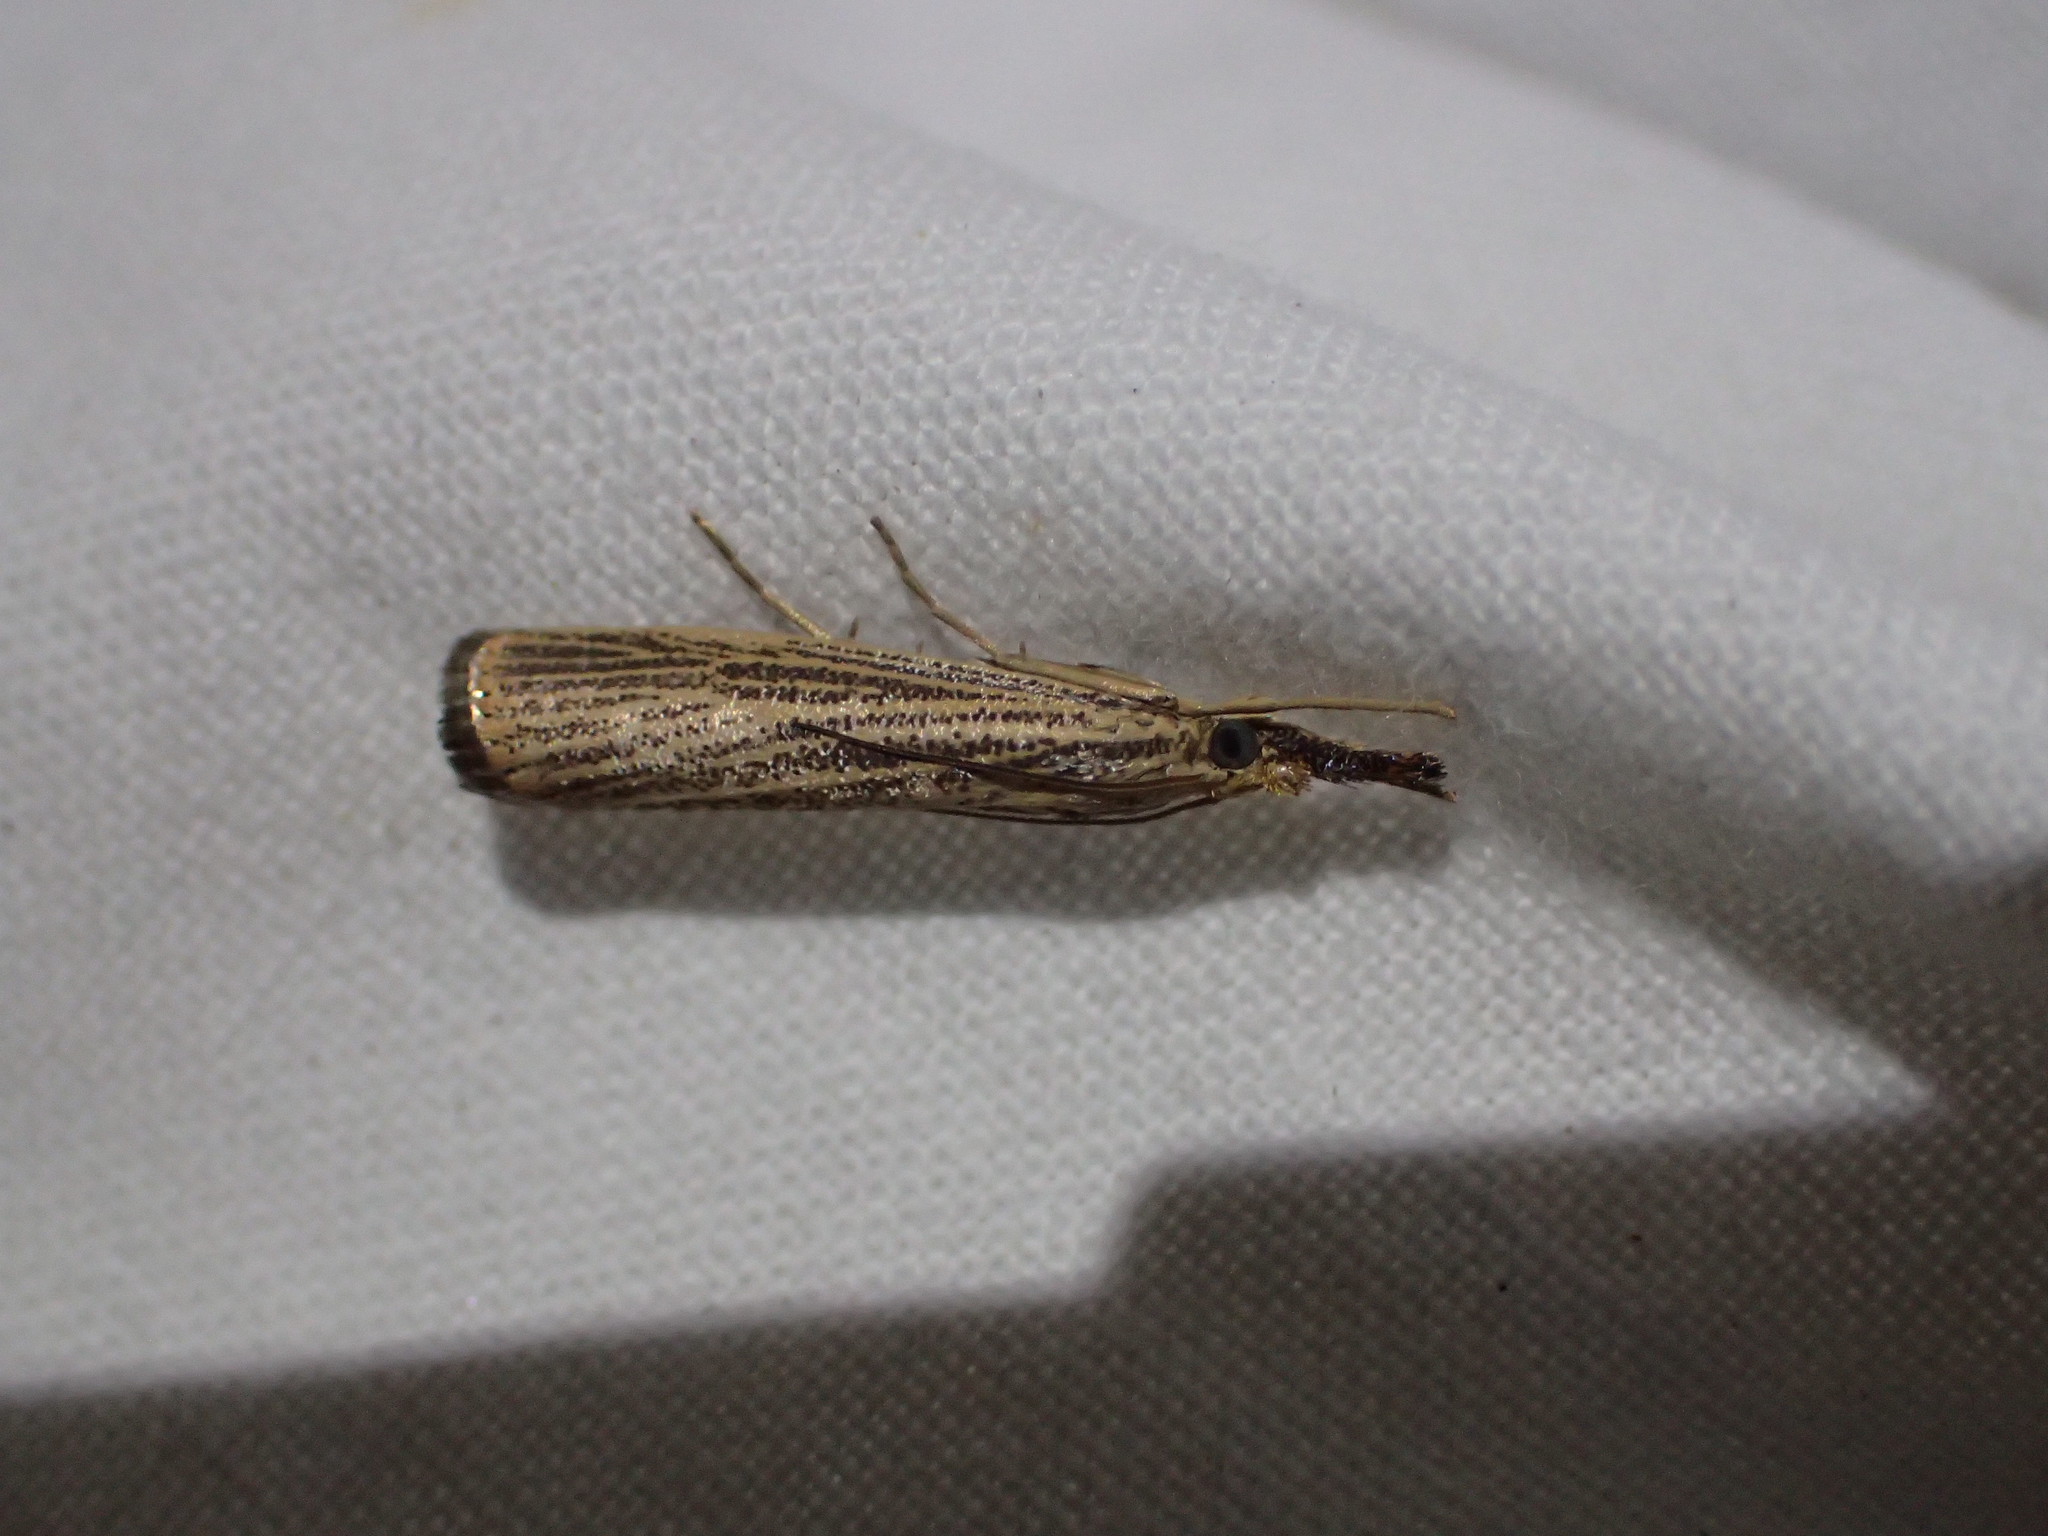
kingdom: Animalia
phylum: Arthropoda
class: Insecta
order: Lepidoptera
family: Crambidae
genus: Agriphila
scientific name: Agriphila vulgivagellus
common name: Vagabond crambus moth
